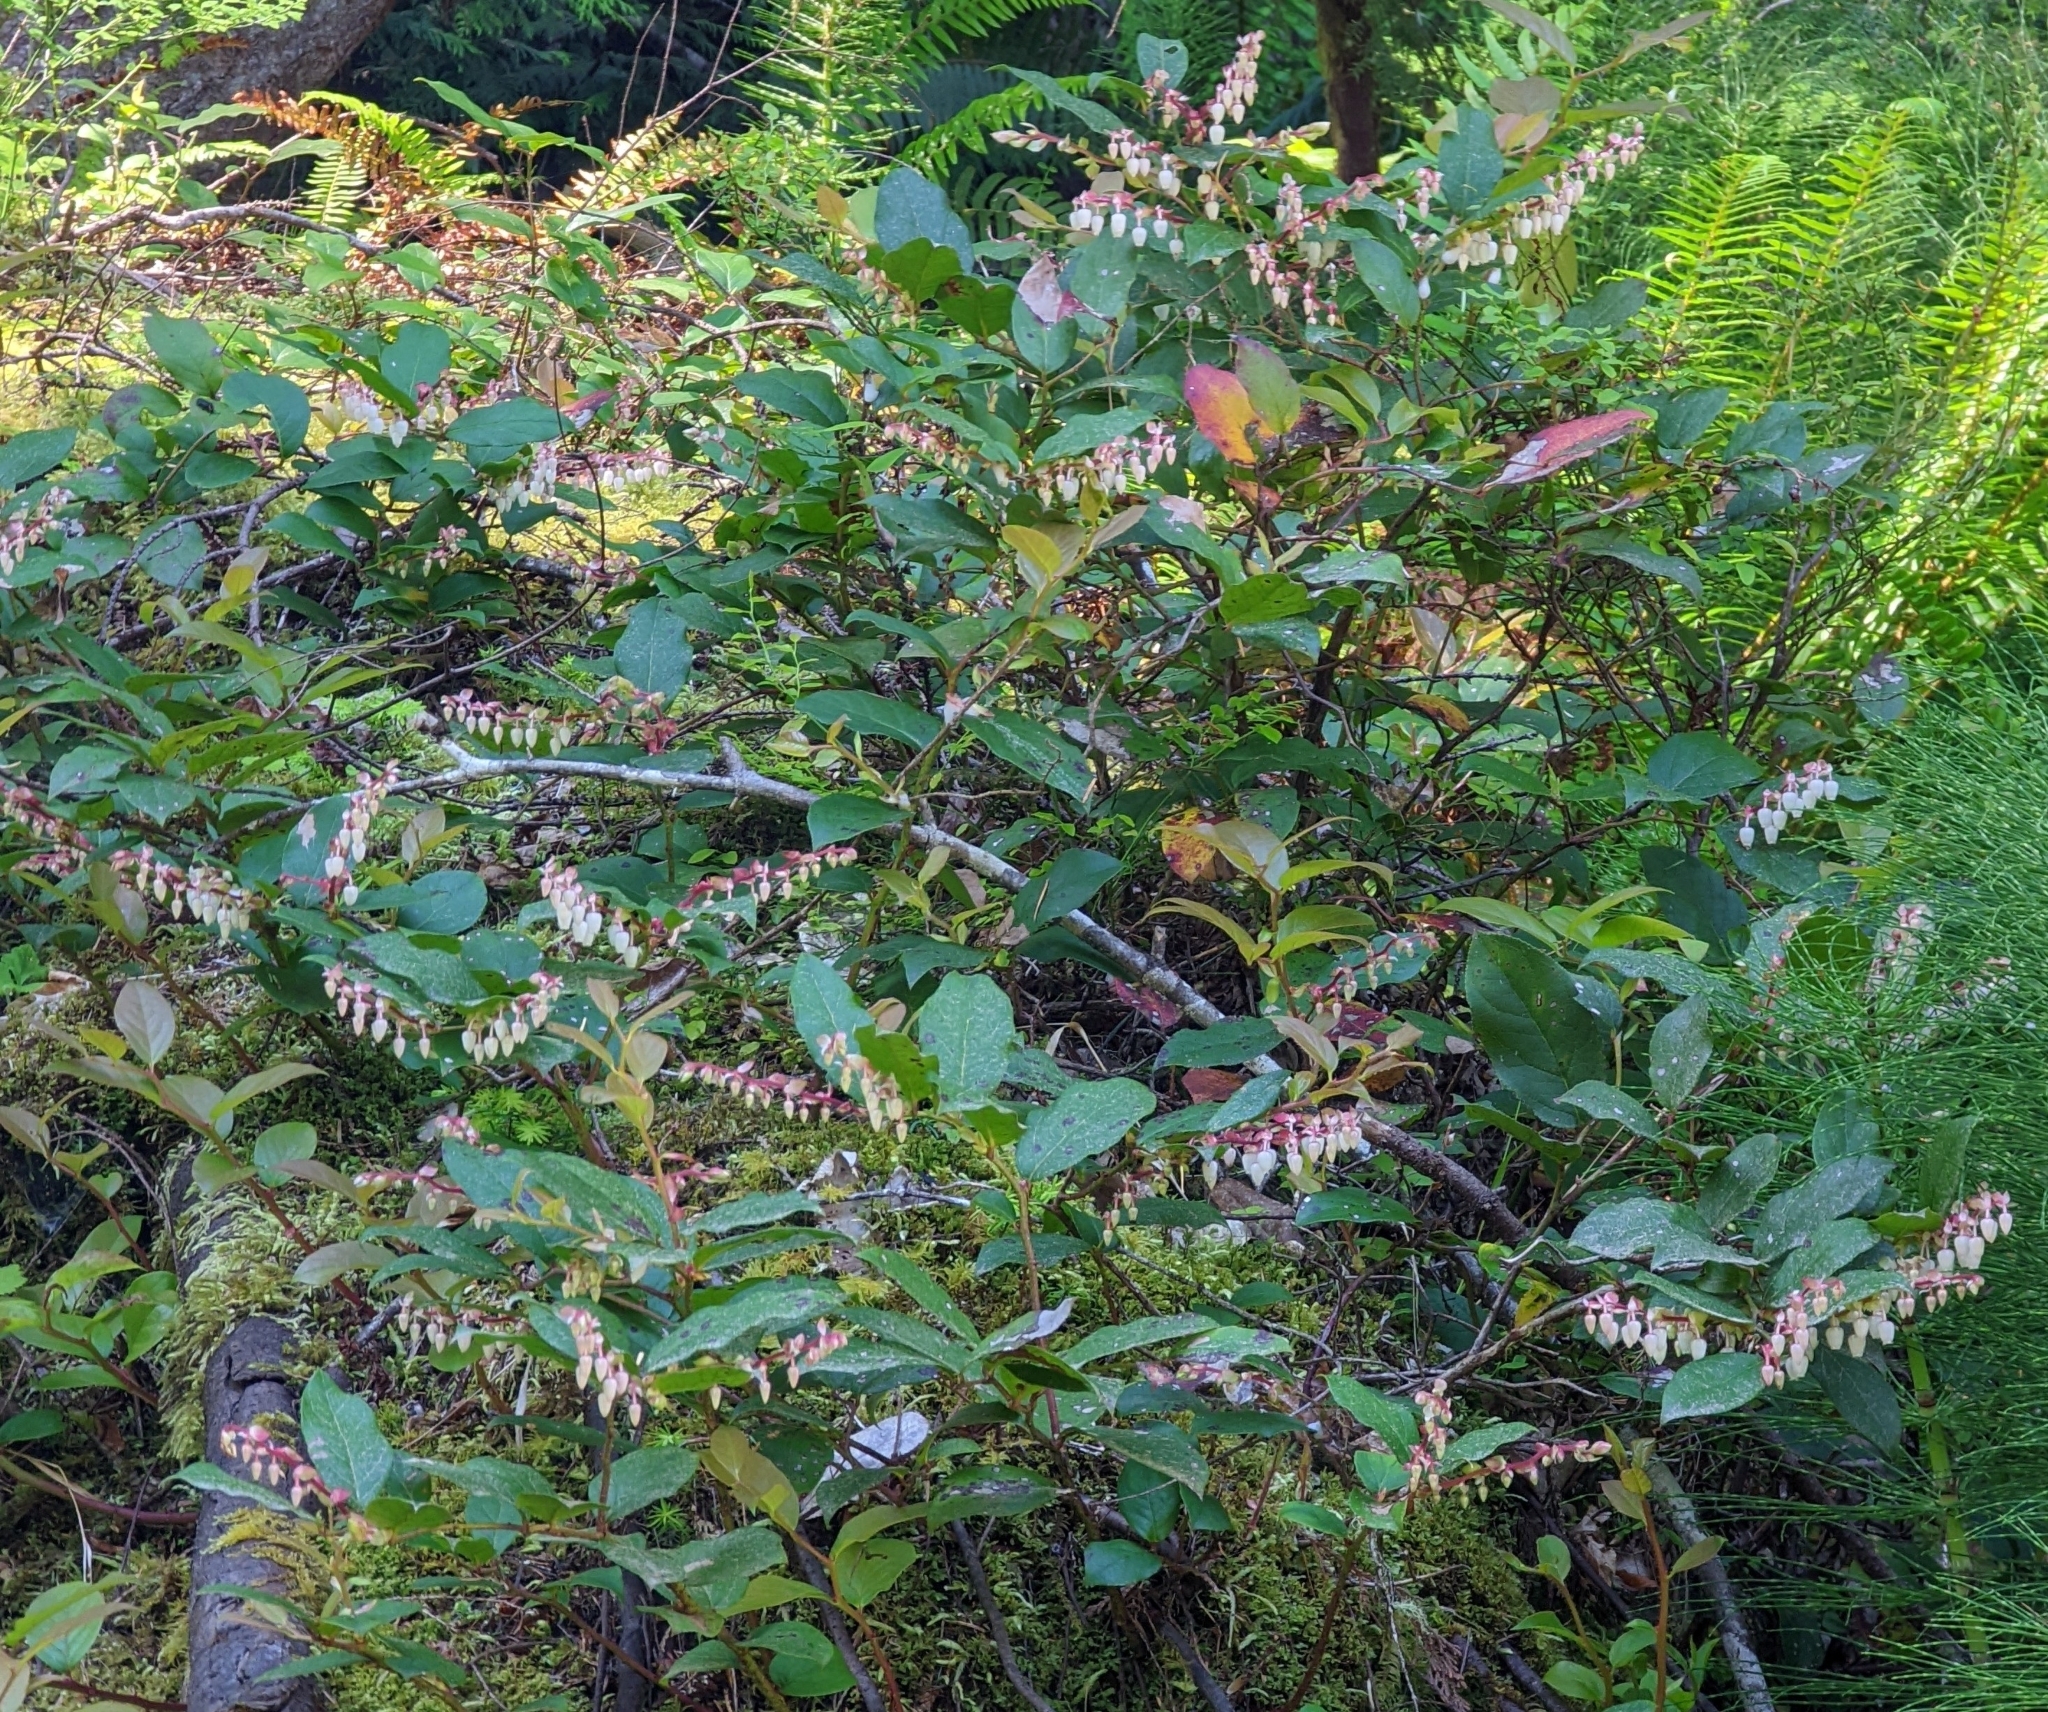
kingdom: Plantae
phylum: Tracheophyta
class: Magnoliopsida
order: Ericales
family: Ericaceae
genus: Gaultheria
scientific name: Gaultheria shallon
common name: Shallon
